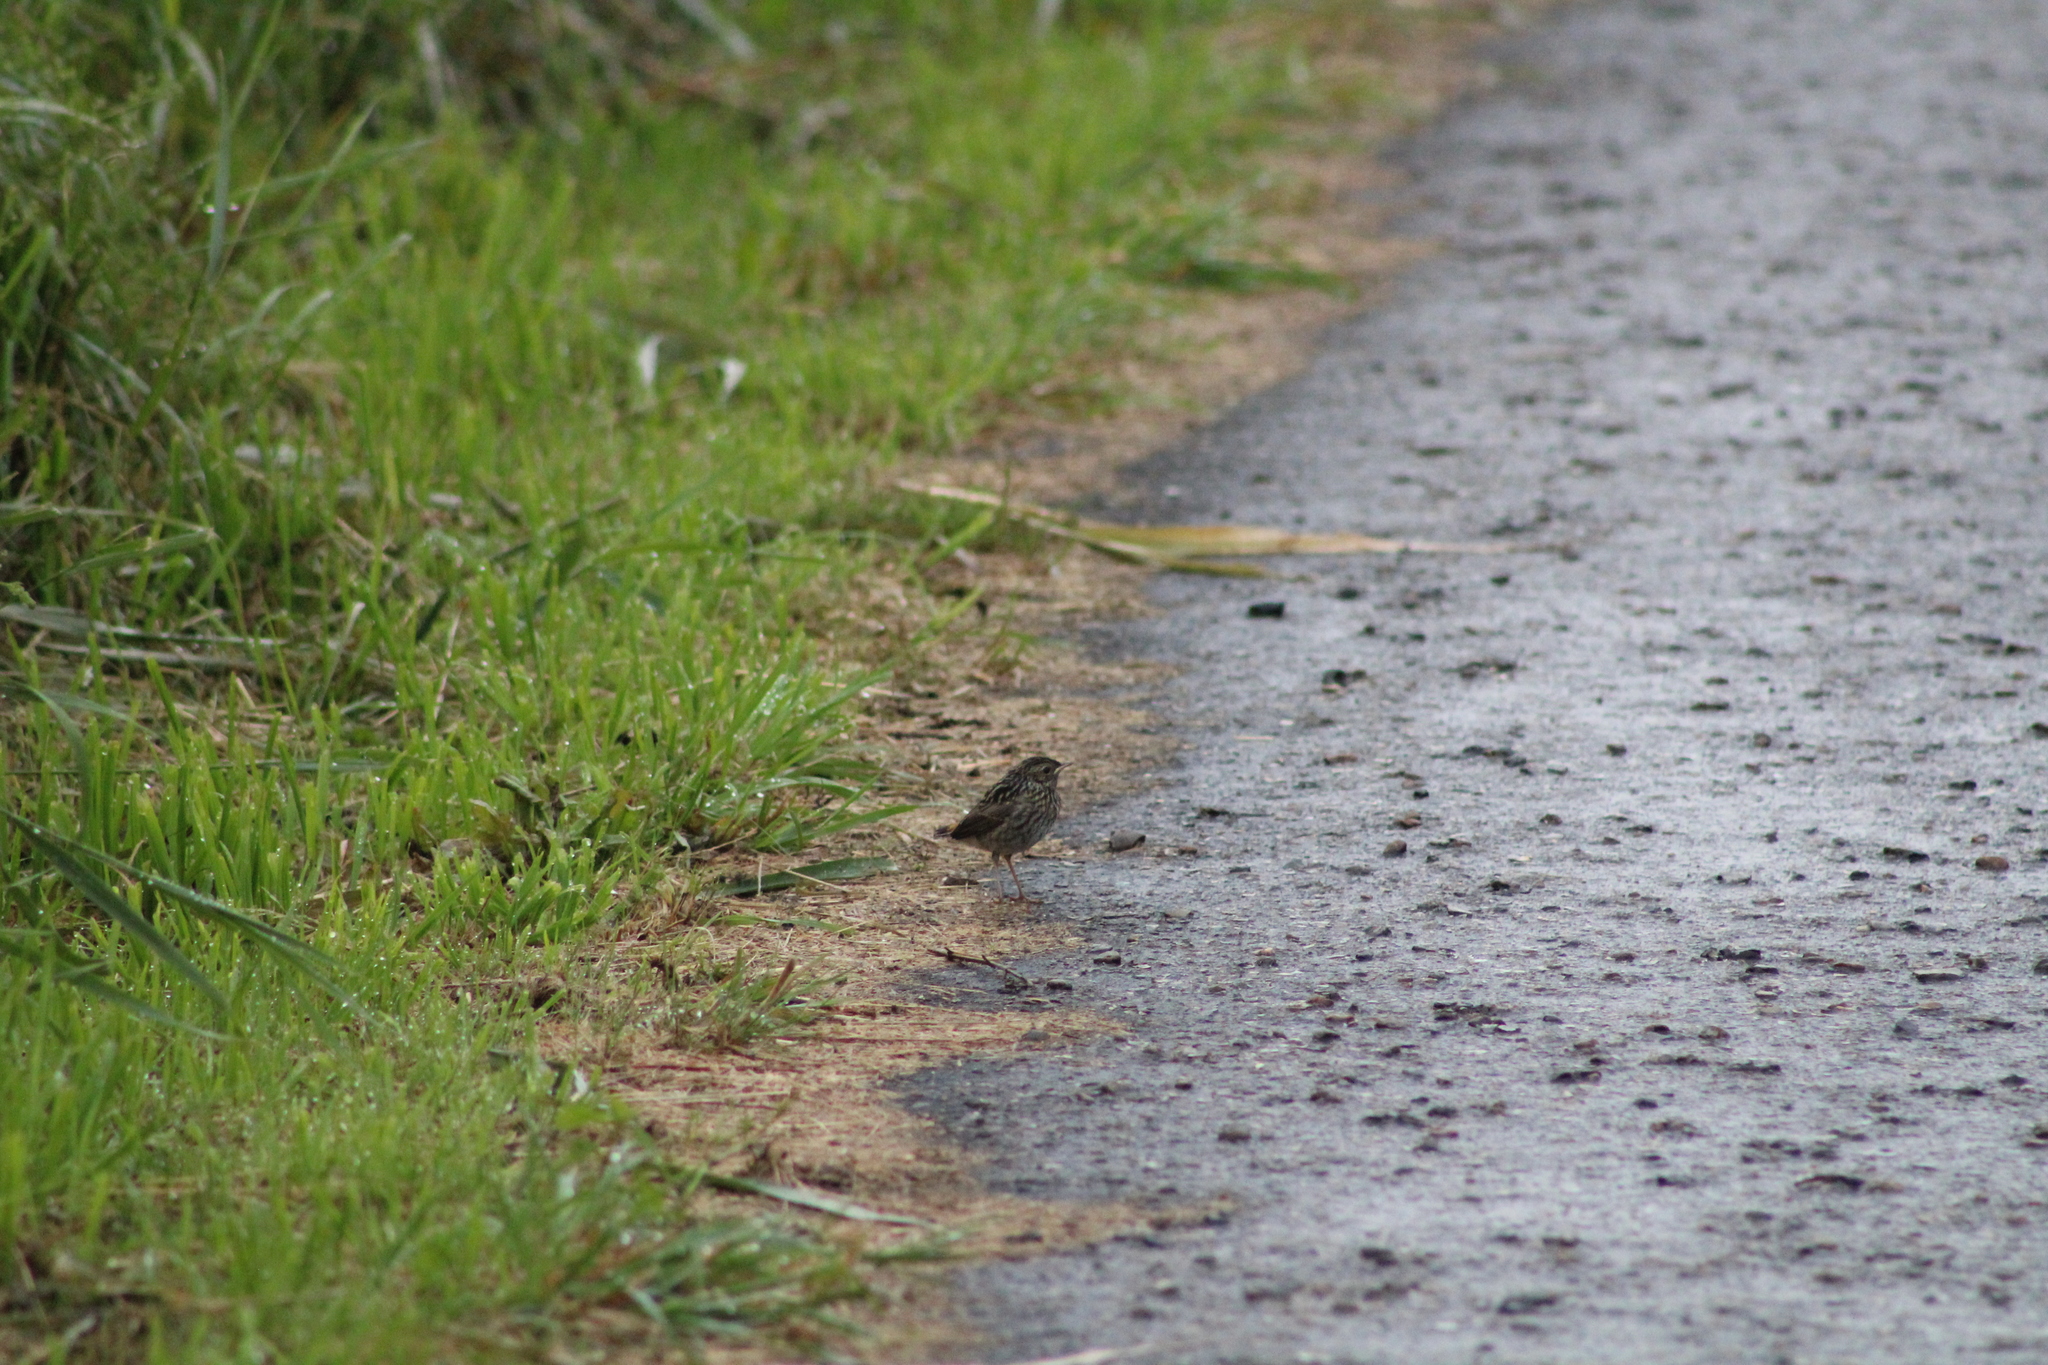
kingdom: Animalia
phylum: Chordata
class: Aves
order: Passeriformes
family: Muscicapidae
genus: Luscinia
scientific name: Luscinia svecica
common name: Bluethroat
